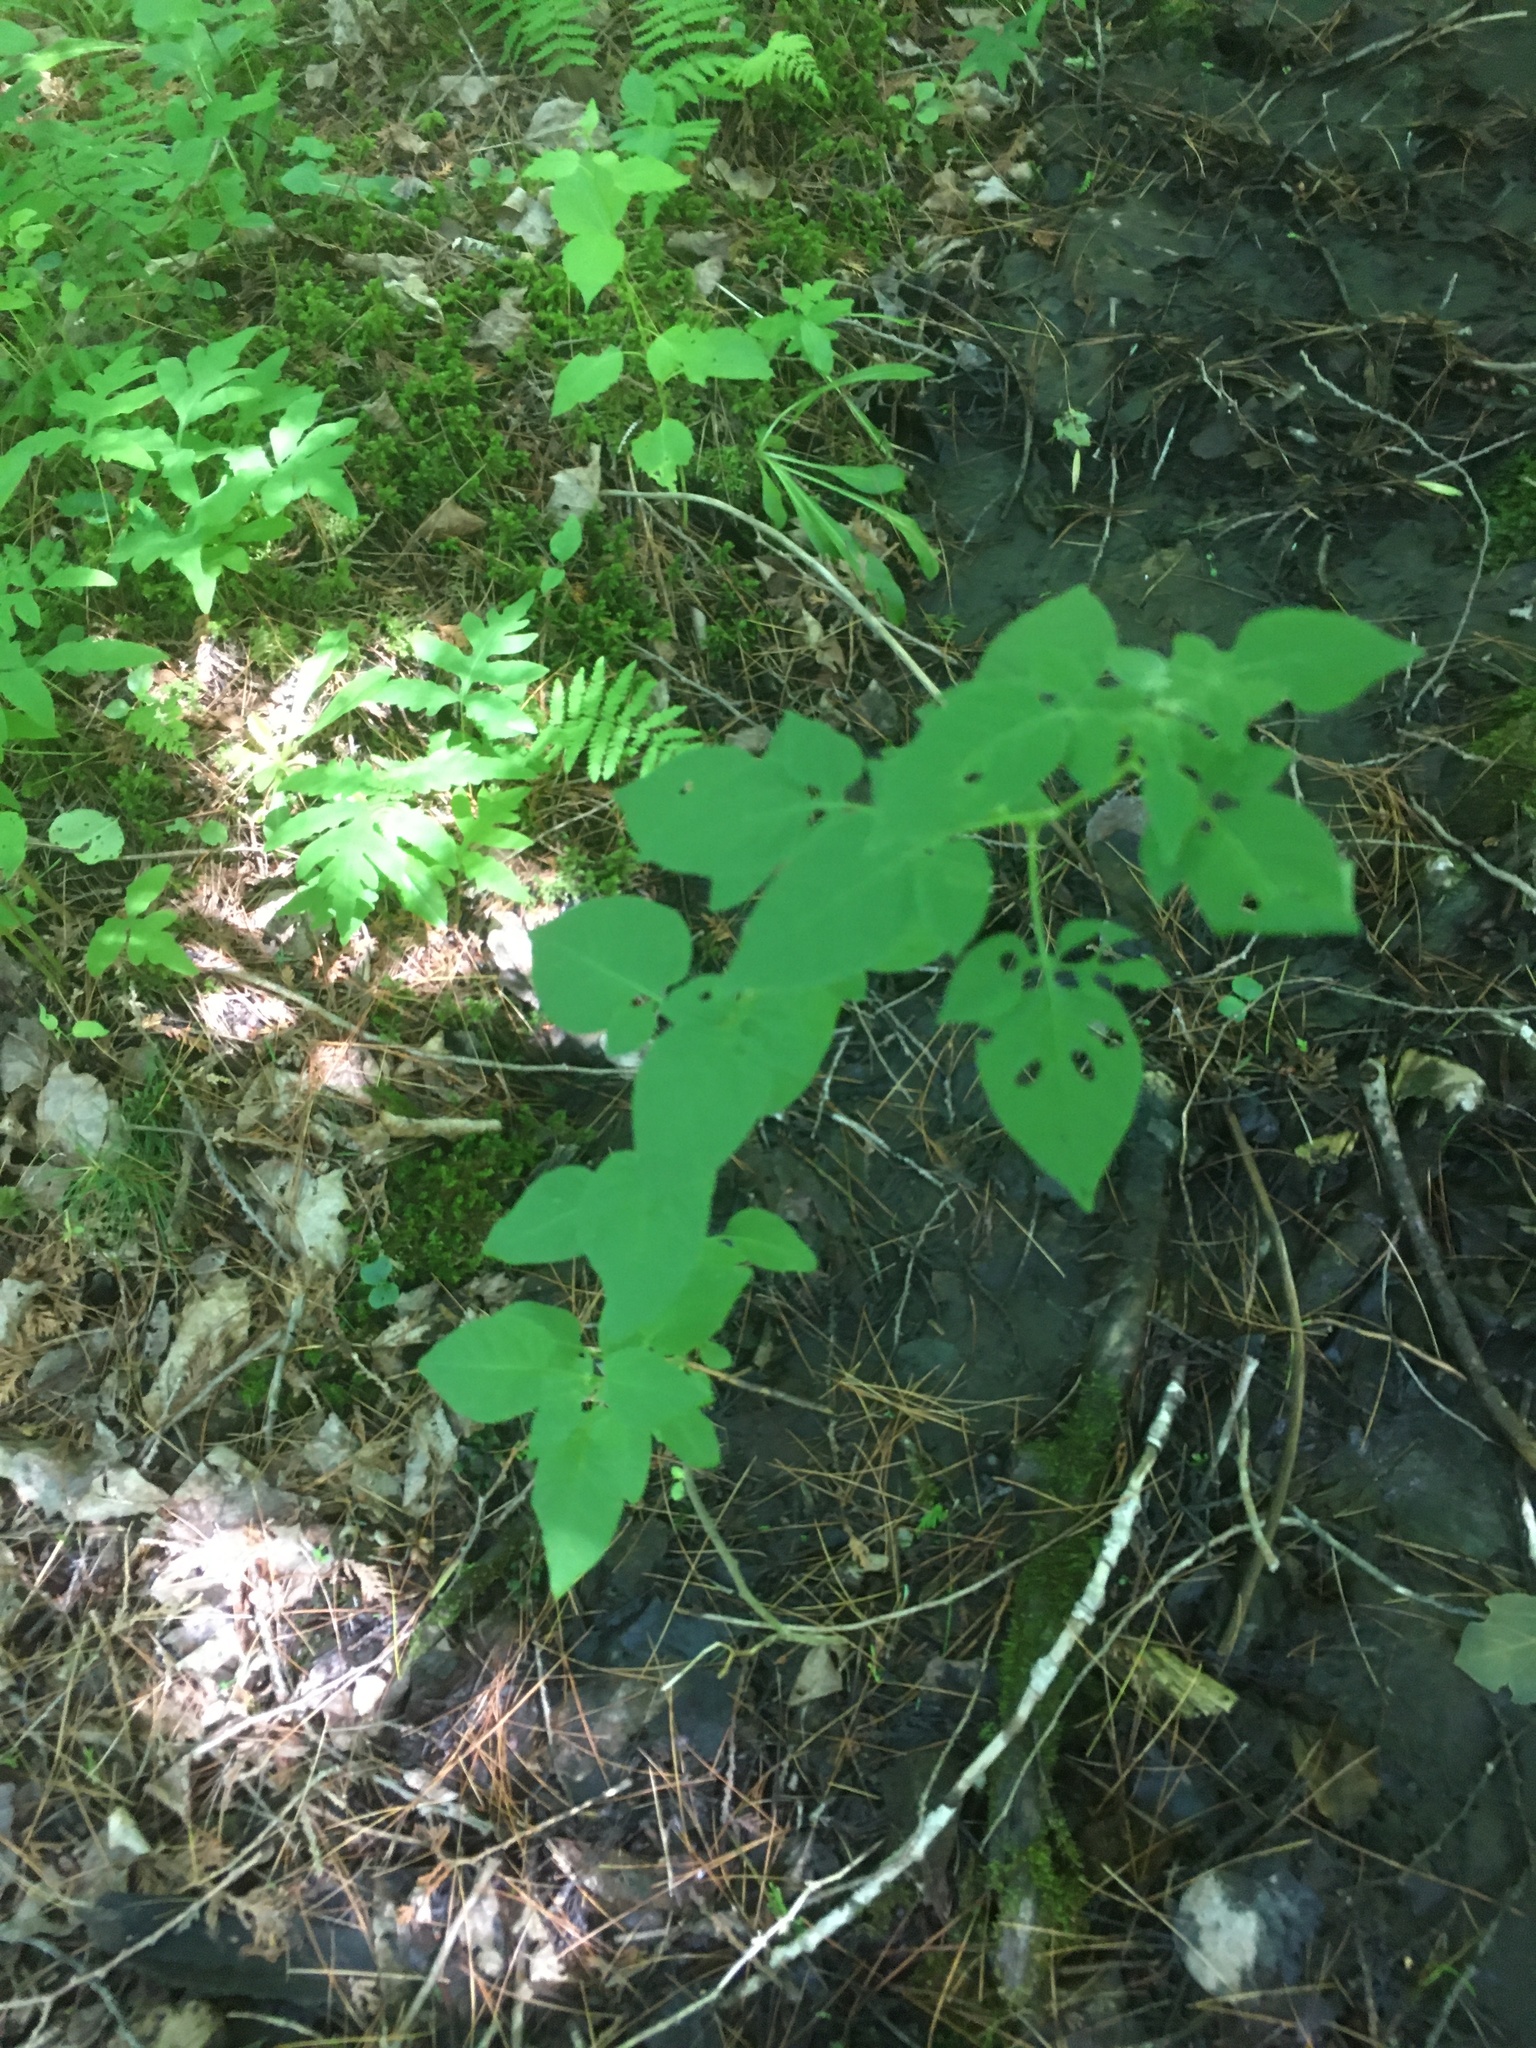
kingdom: Plantae
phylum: Tracheophyta
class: Magnoliopsida
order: Solanales
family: Solanaceae
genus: Solanum
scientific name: Solanum dulcamara
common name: Climbing nightshade
